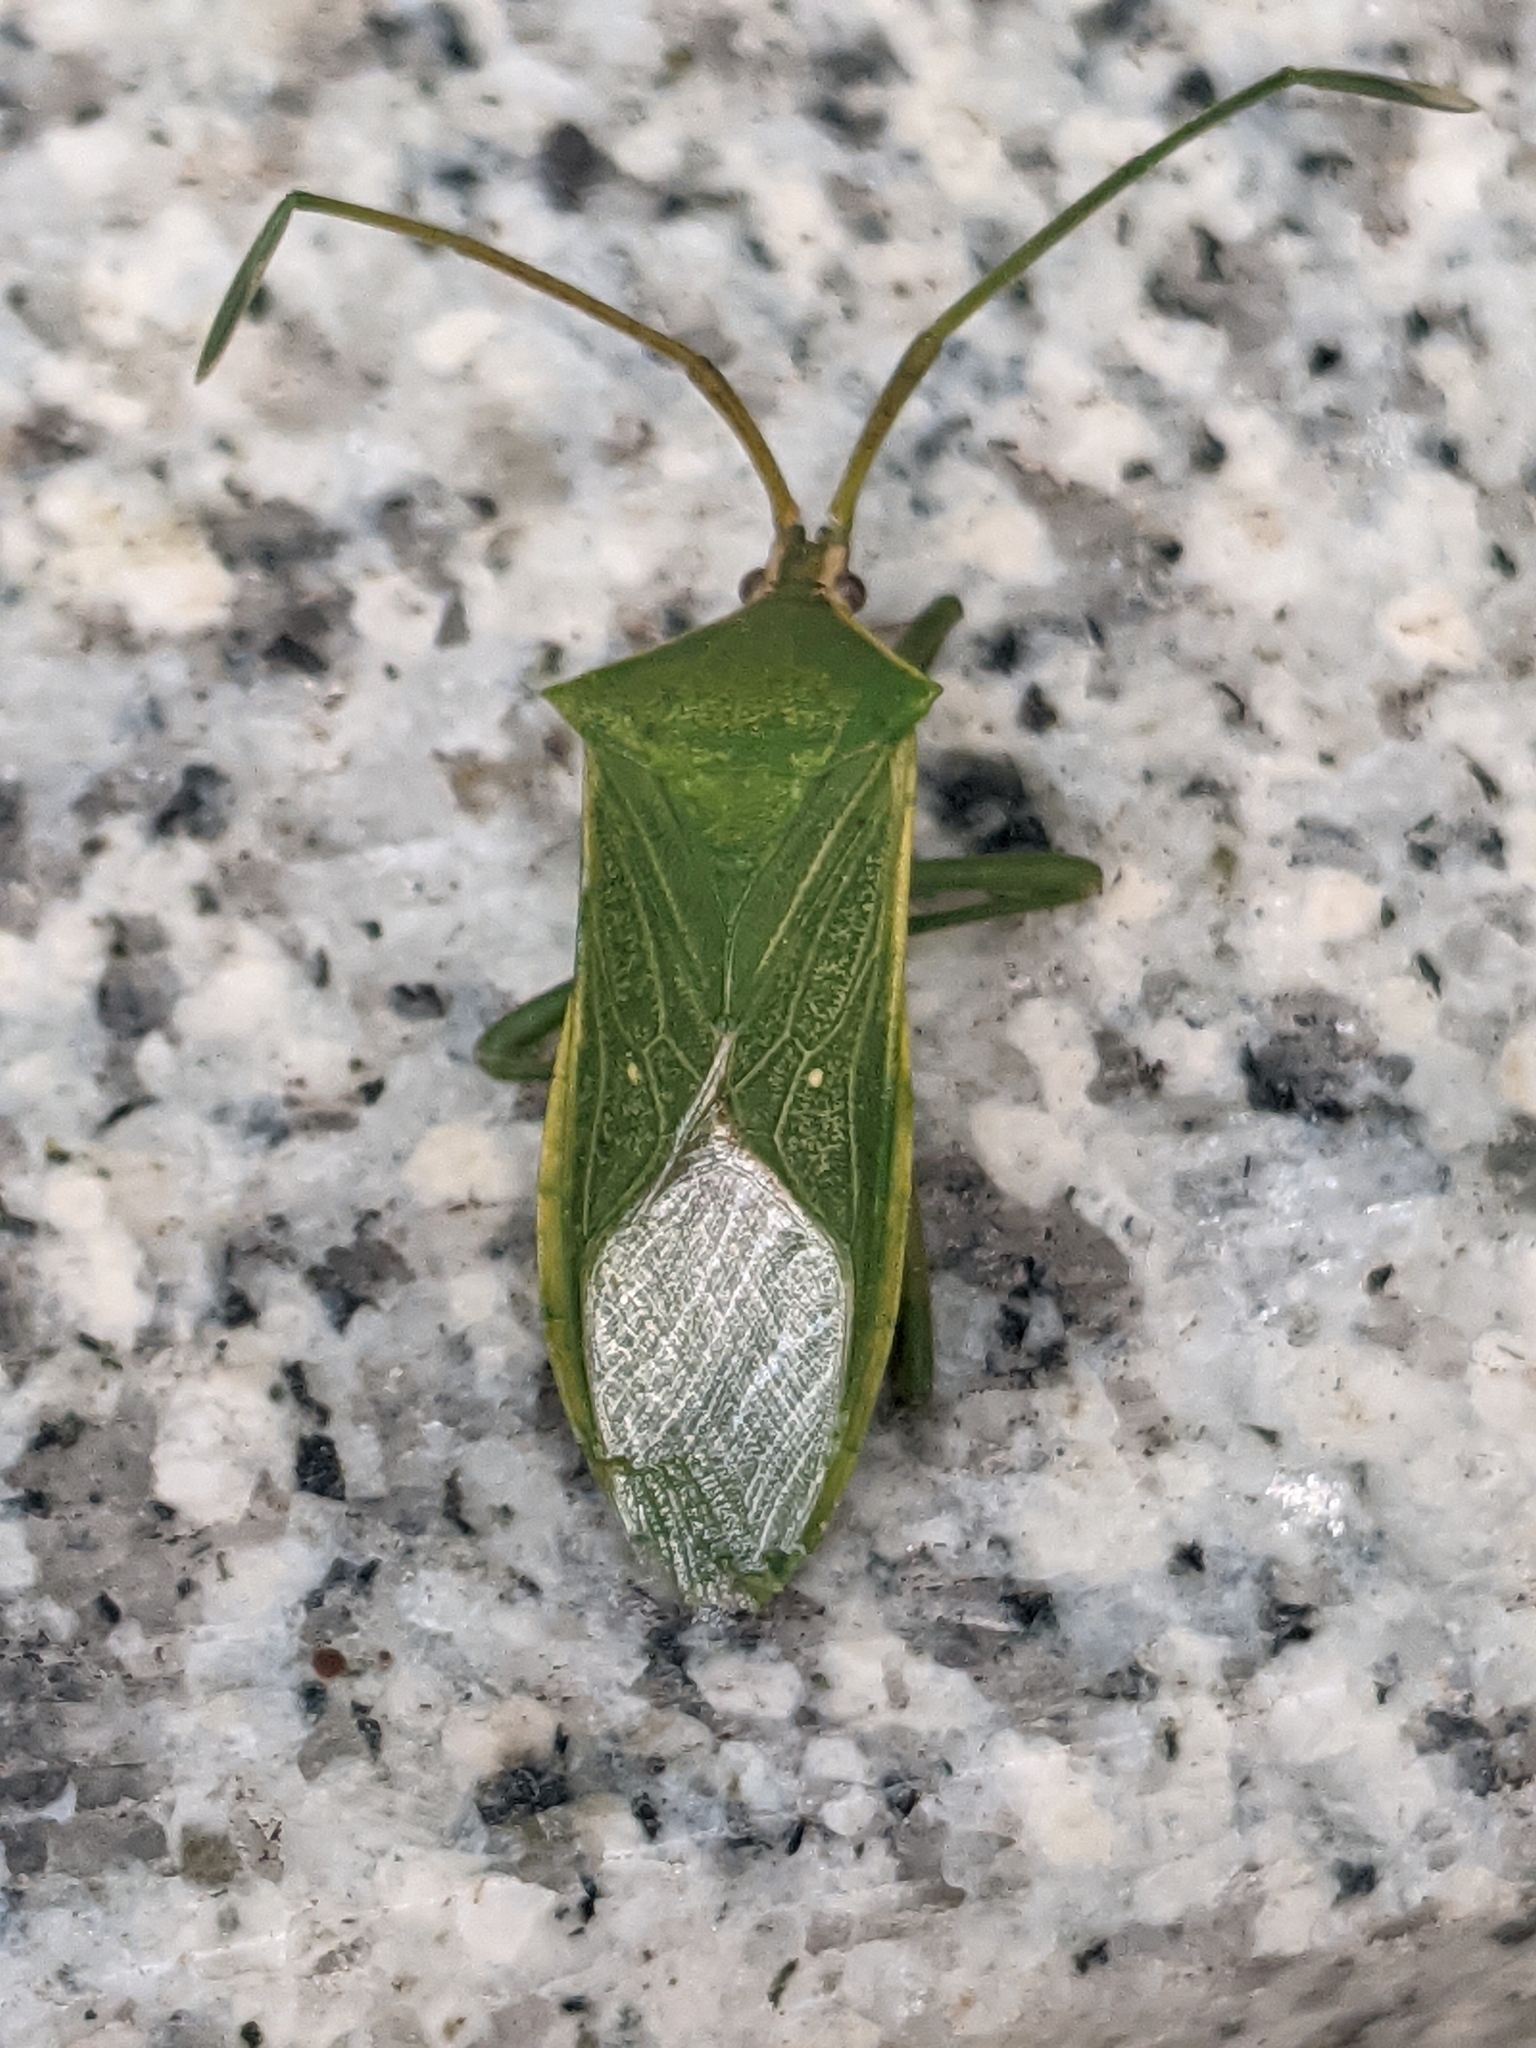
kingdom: Animalia
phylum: Arthropoda
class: Insecta
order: Hemiptera
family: Coreidae
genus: Homoeocerus
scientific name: Homoeocerus lacertosus
